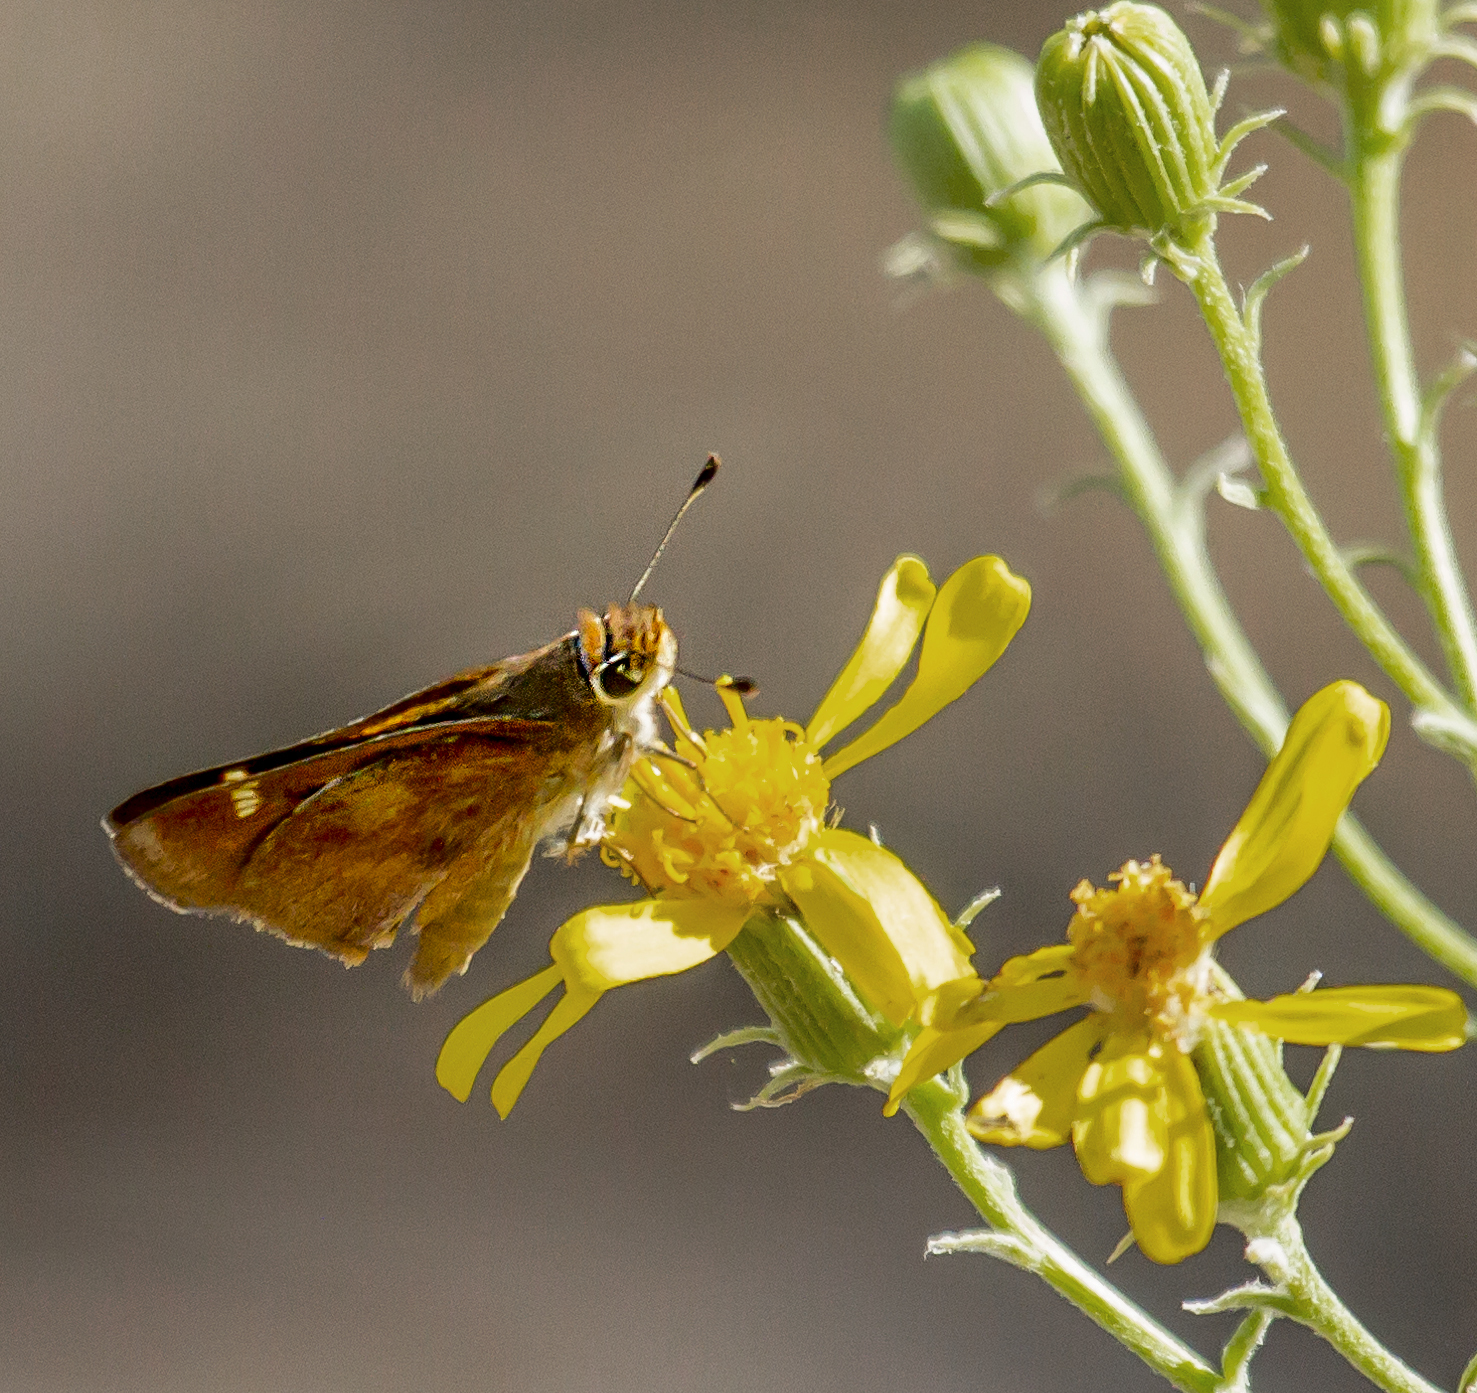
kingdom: Animalia
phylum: Arthropoda
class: Insecta
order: Lepidoptera
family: Hesperiidae
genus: Ochlodes
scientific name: Ochlodes sylvanoides
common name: Woodland skipper
